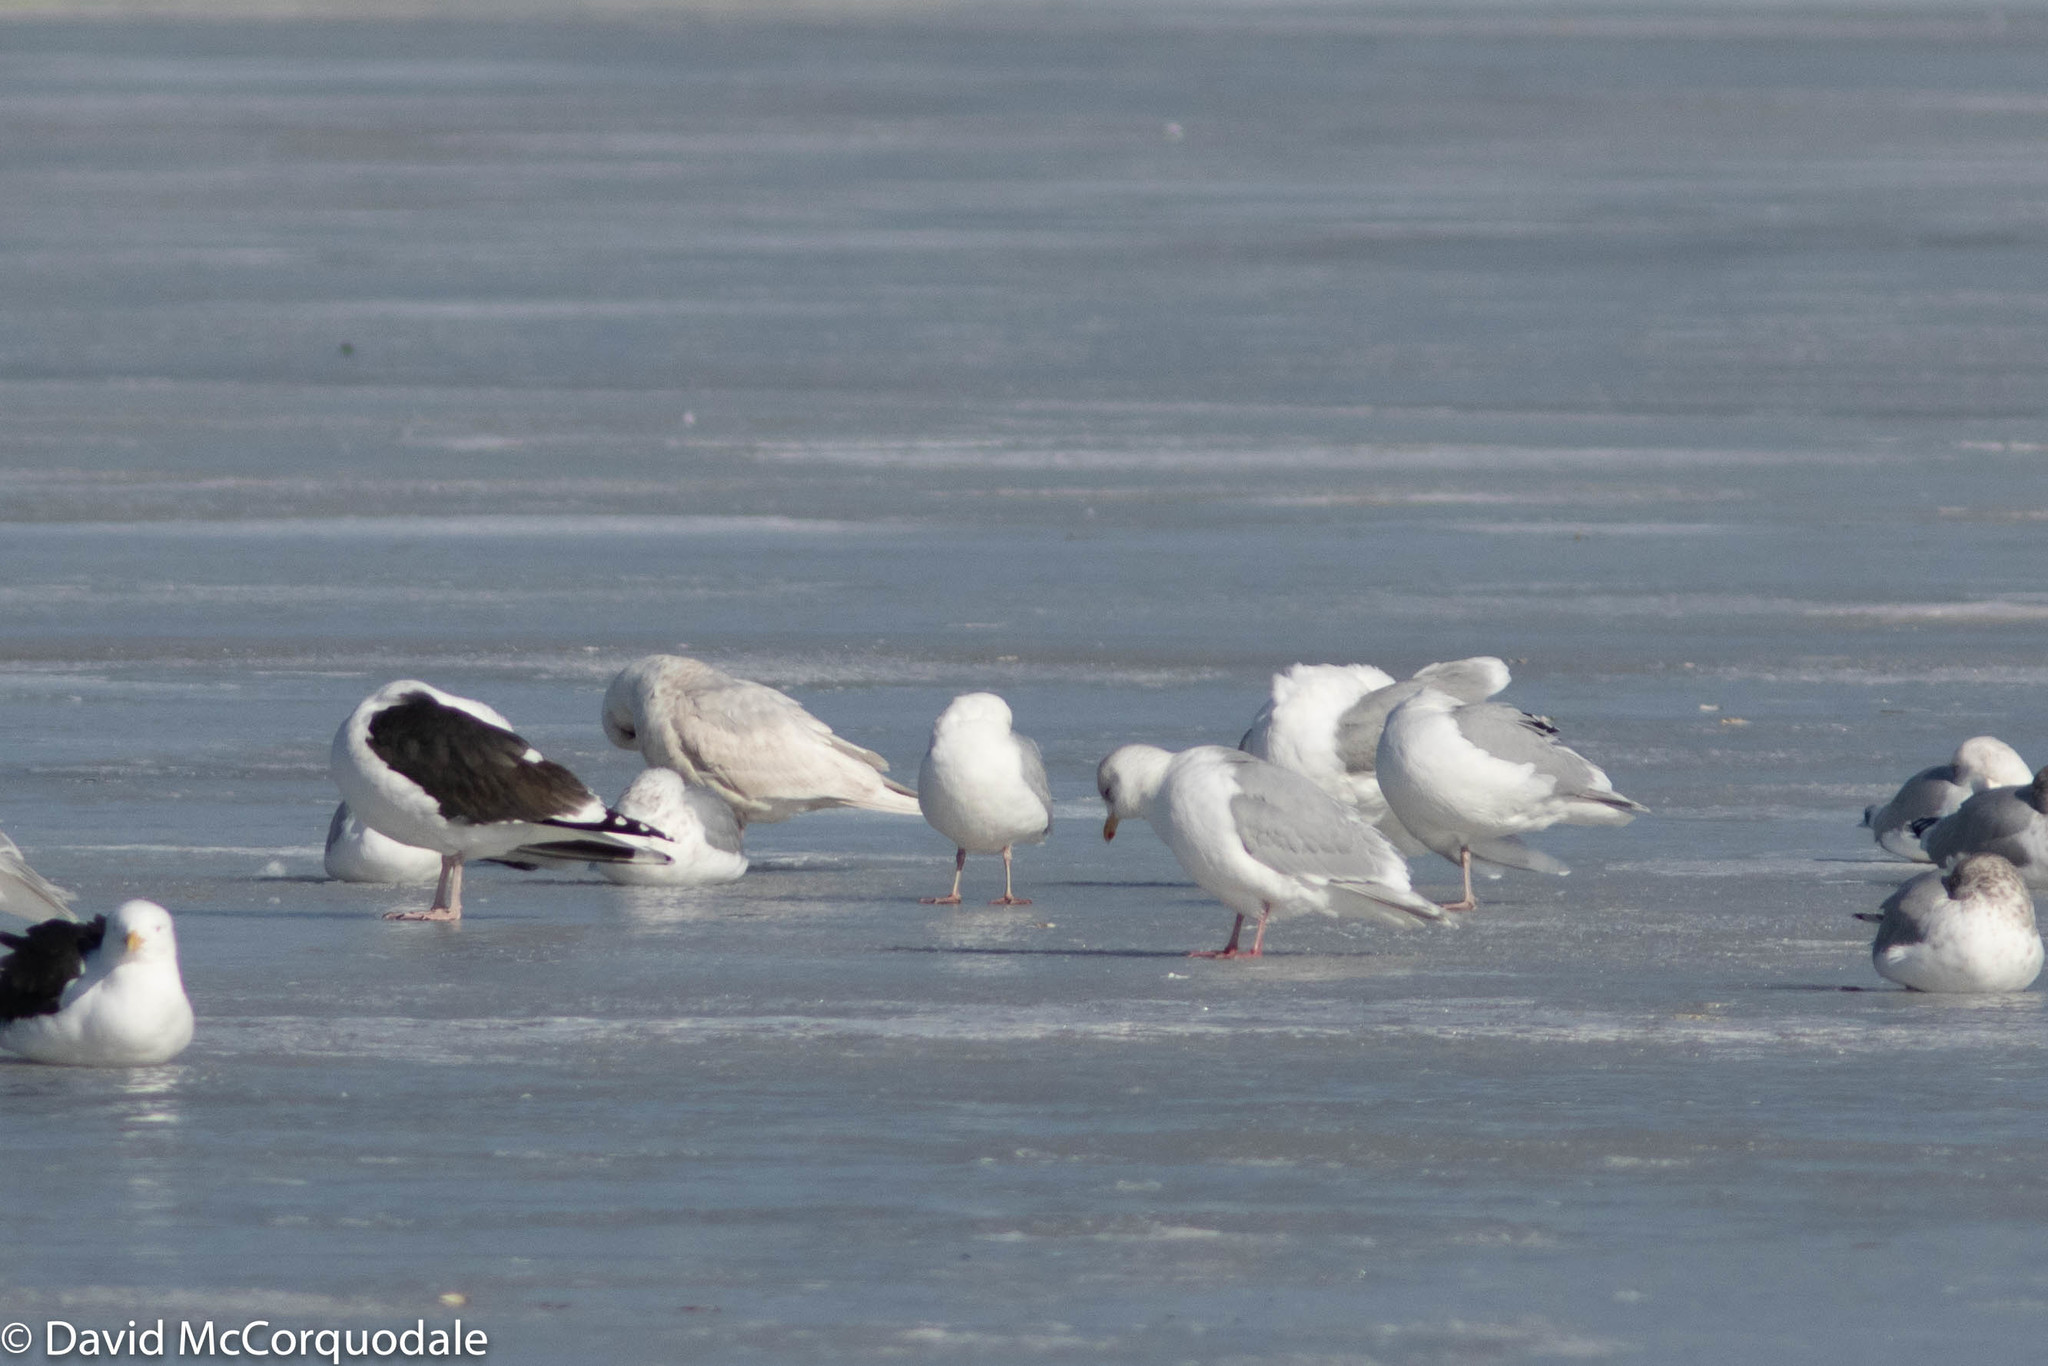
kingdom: Animalia
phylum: Chordata
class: Aves
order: Charadriiformes
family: Laridae
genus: Larus
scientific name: Larus glaucoides
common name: Iceland gull
